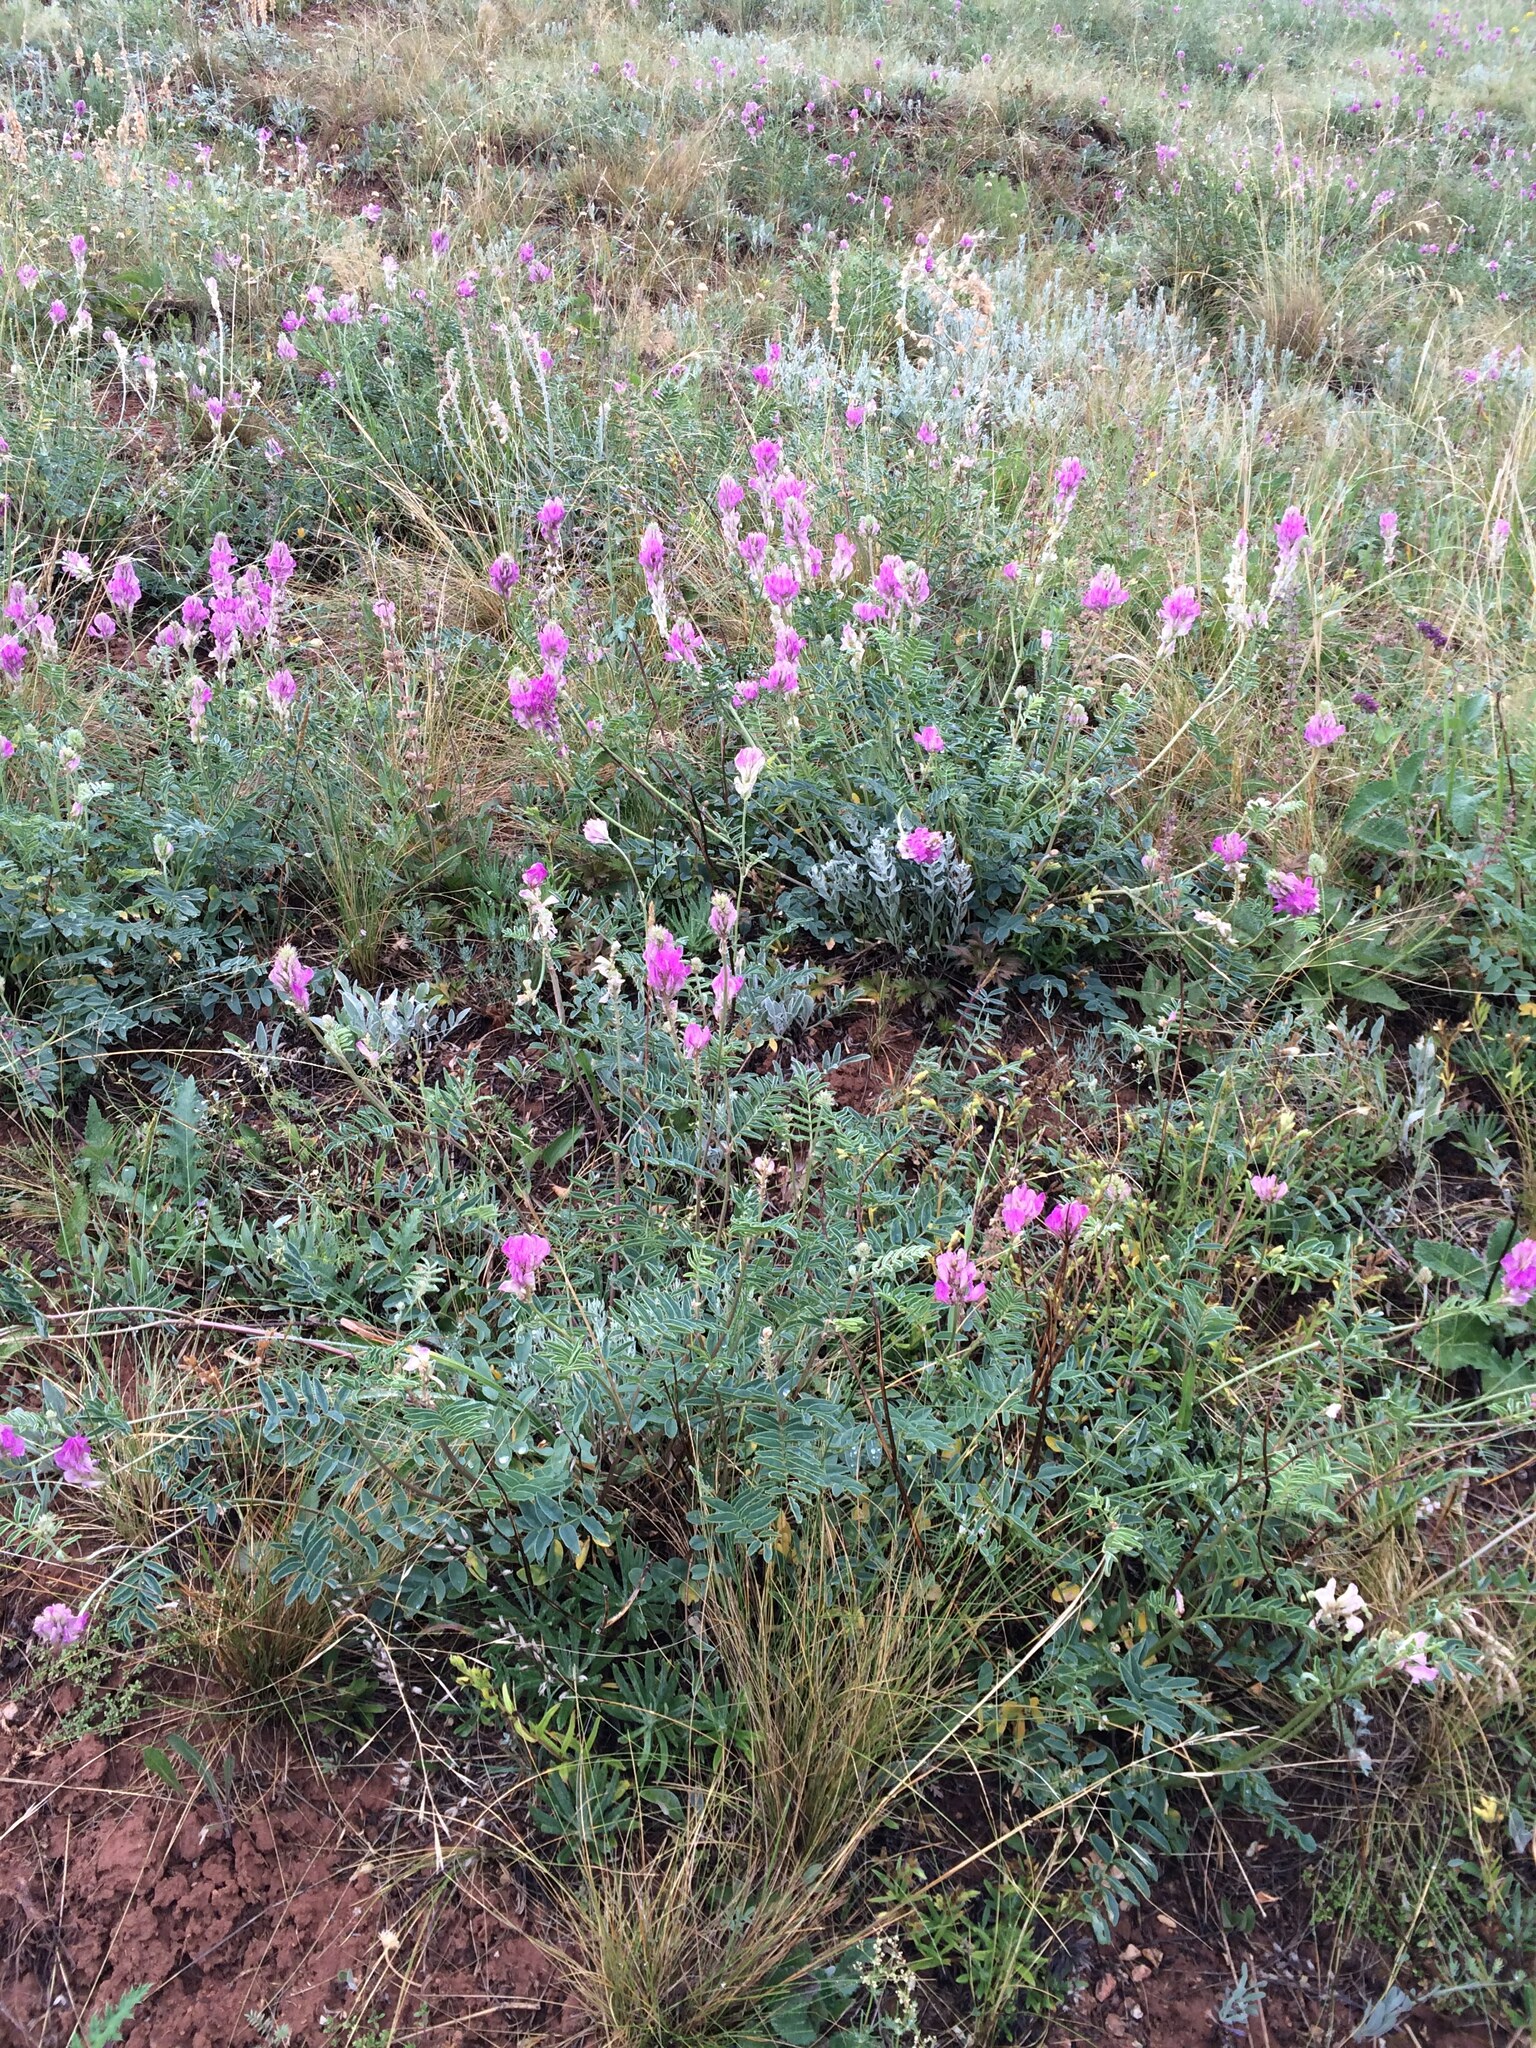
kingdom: Plantae
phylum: Tracheophyta
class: Magnoliopsida
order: Fabales
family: Fabaceae
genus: Hedysarum
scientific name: Hedysarum gmelinii
